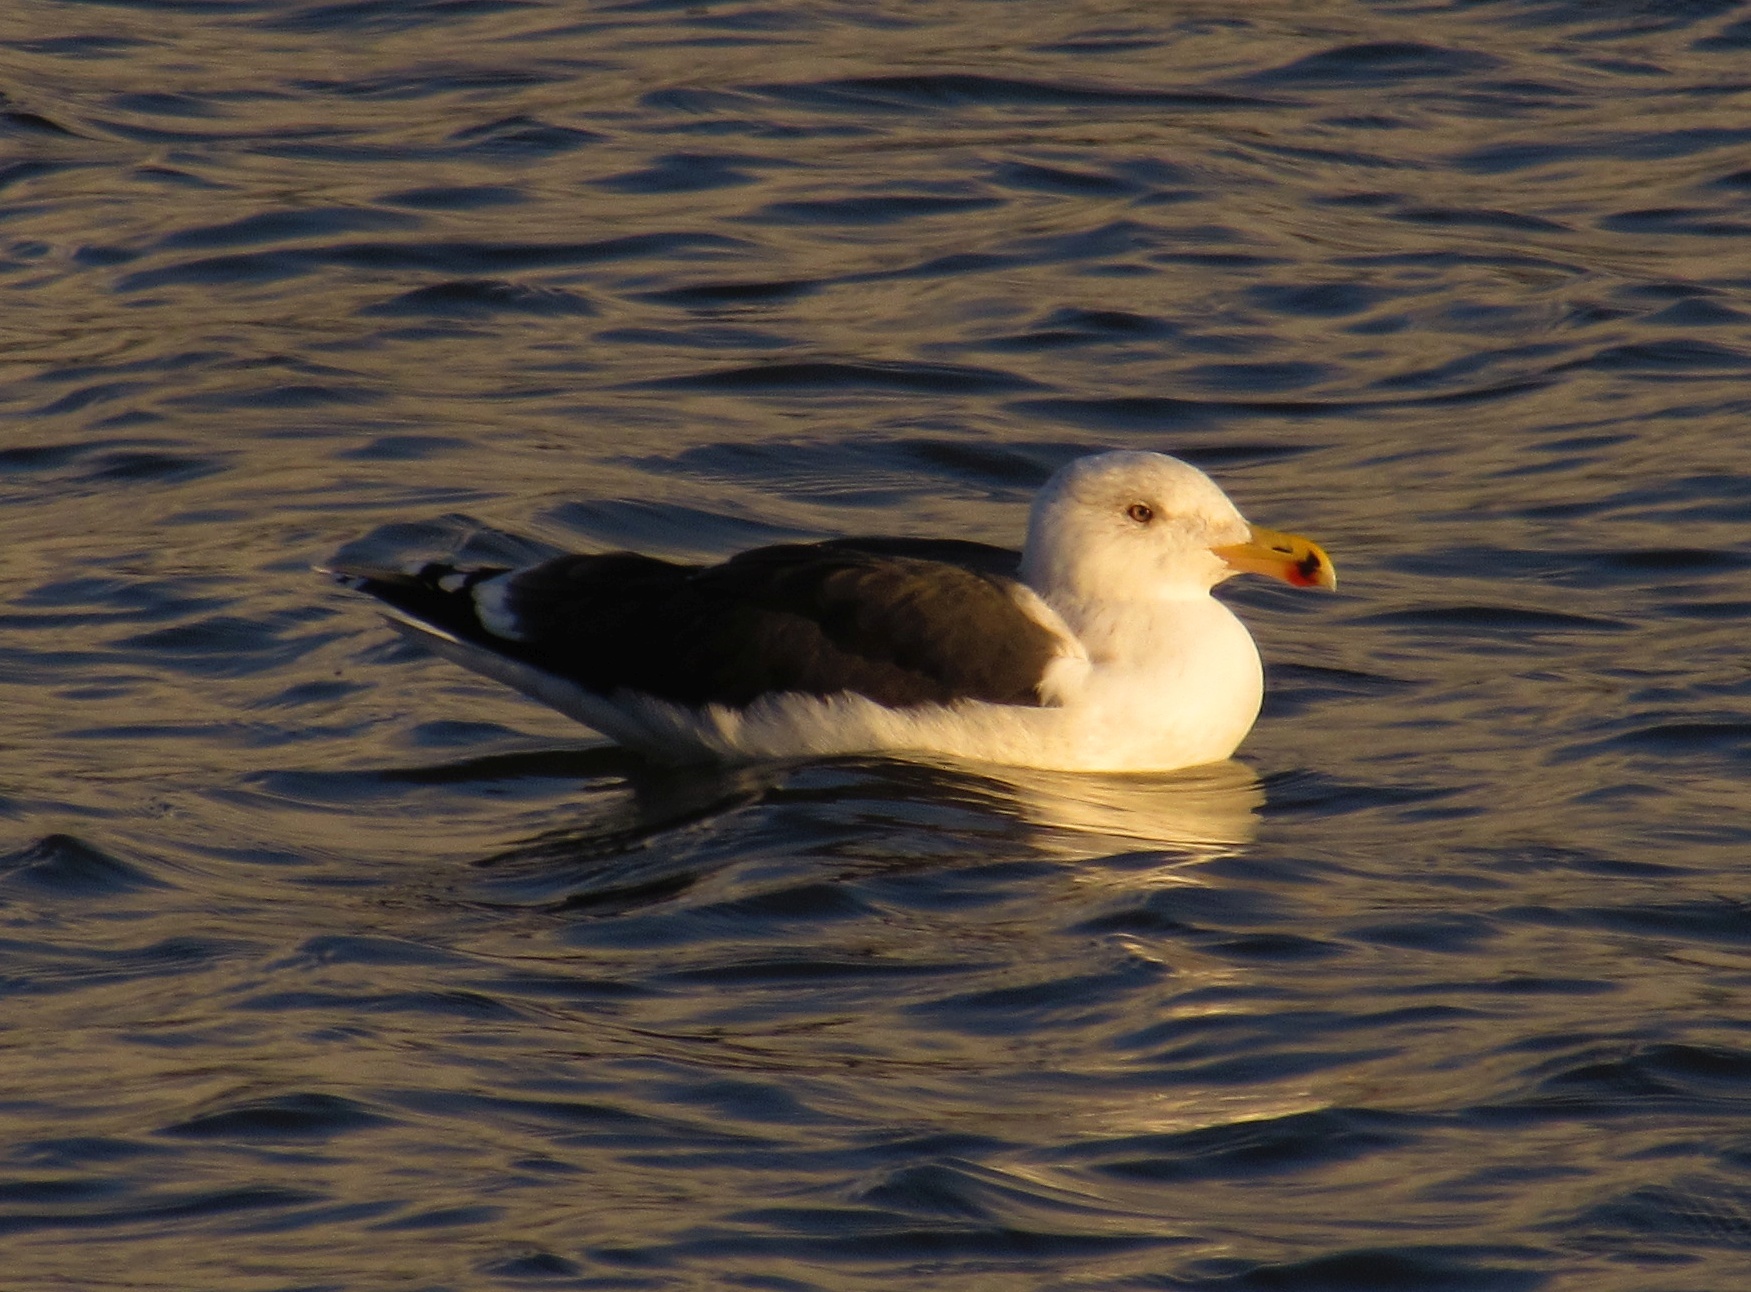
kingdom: Animalia
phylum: Chordata
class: Aves
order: Charadriiformes
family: Laridae
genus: Larus
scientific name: Larus marinus
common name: Great black-backed gull
